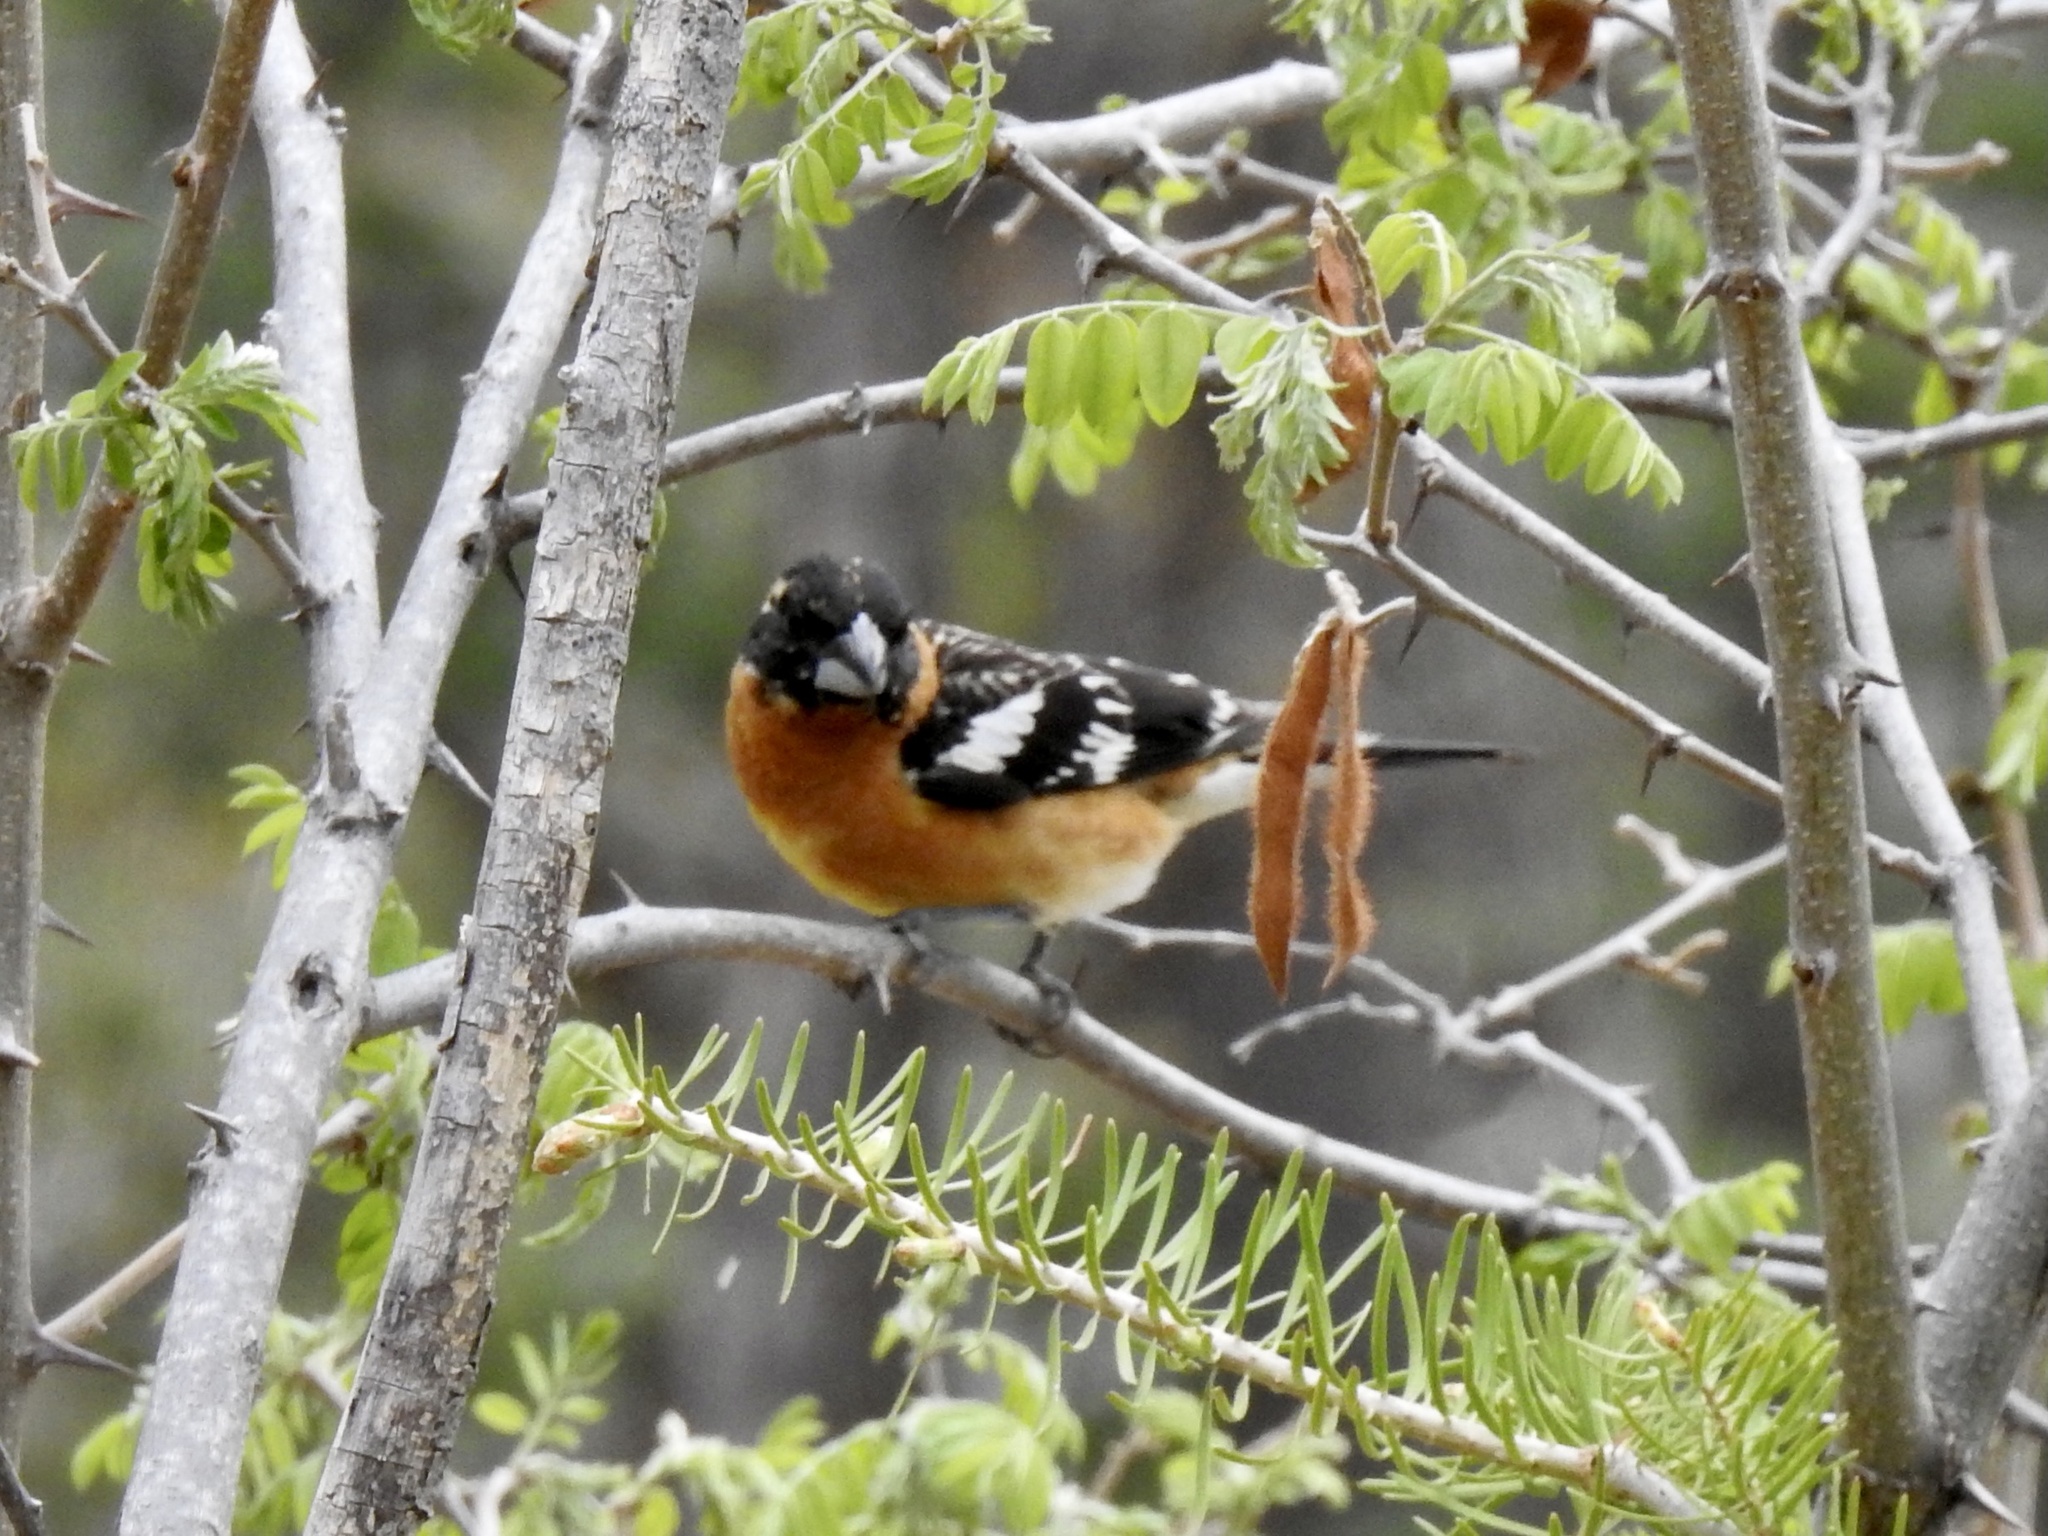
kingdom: Animalia
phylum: Chordata
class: Aves
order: Passeriformes
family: Cardinalidae
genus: Pheucticus
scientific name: Pheucticus melanocephalus
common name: Black-headed grosbeak
